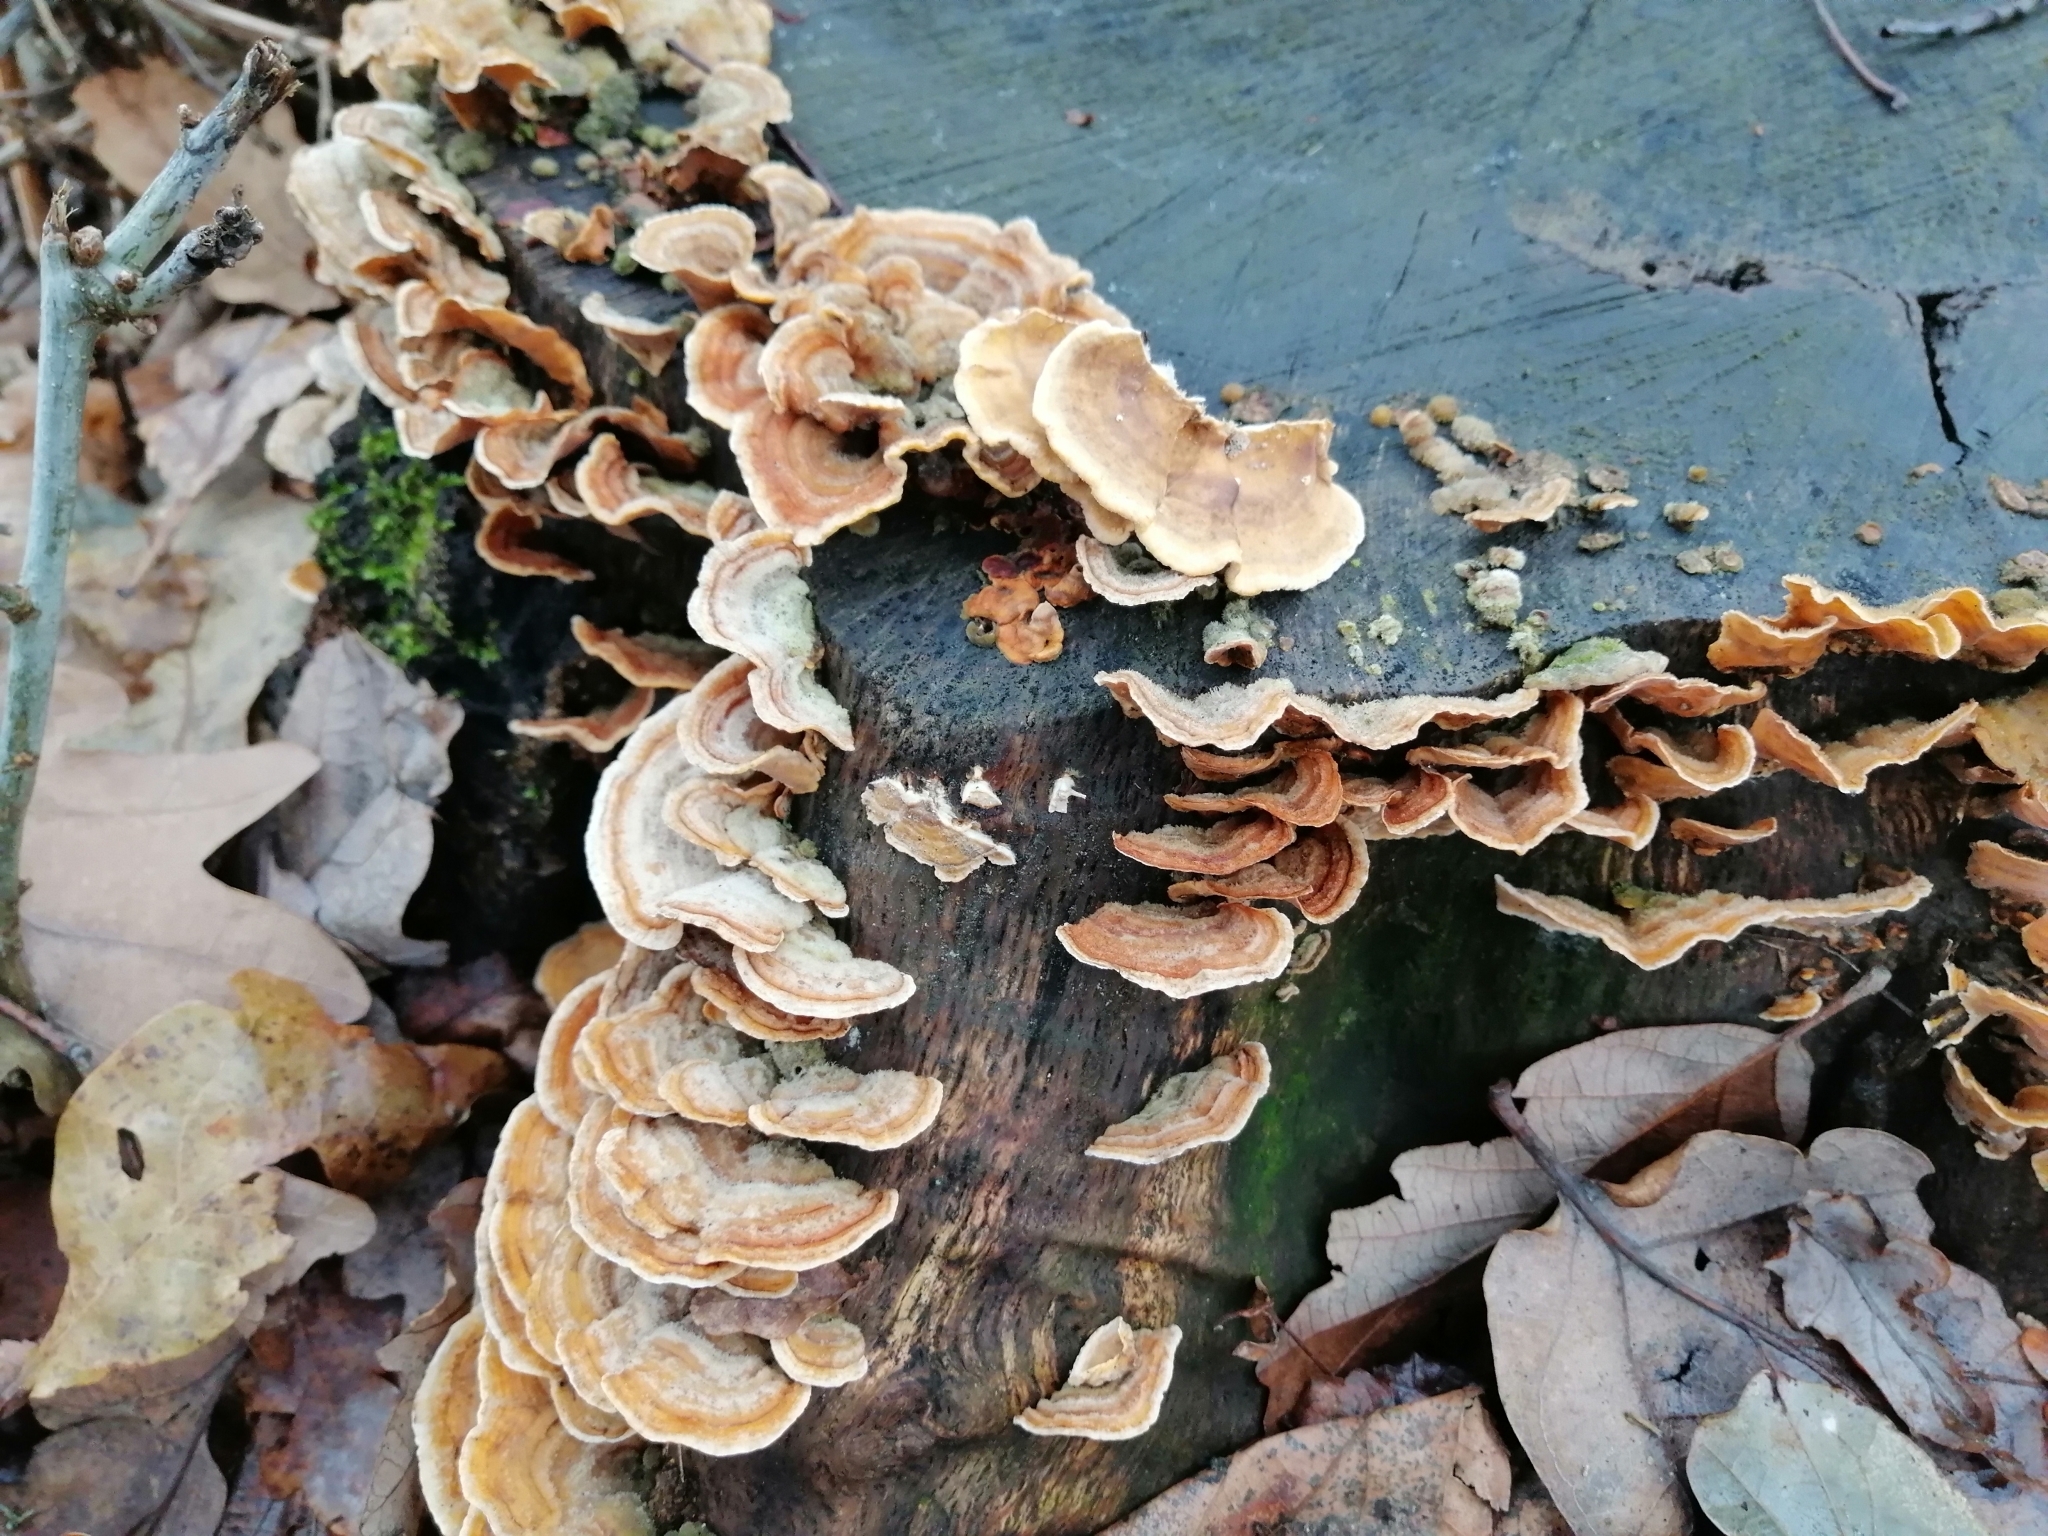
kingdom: Fungi
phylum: Basidiomycota
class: Agaricomycetes
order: Russulales
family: Stereaceae
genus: Stereum
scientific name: Stereum hirsutum
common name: Hairy curtain crust
